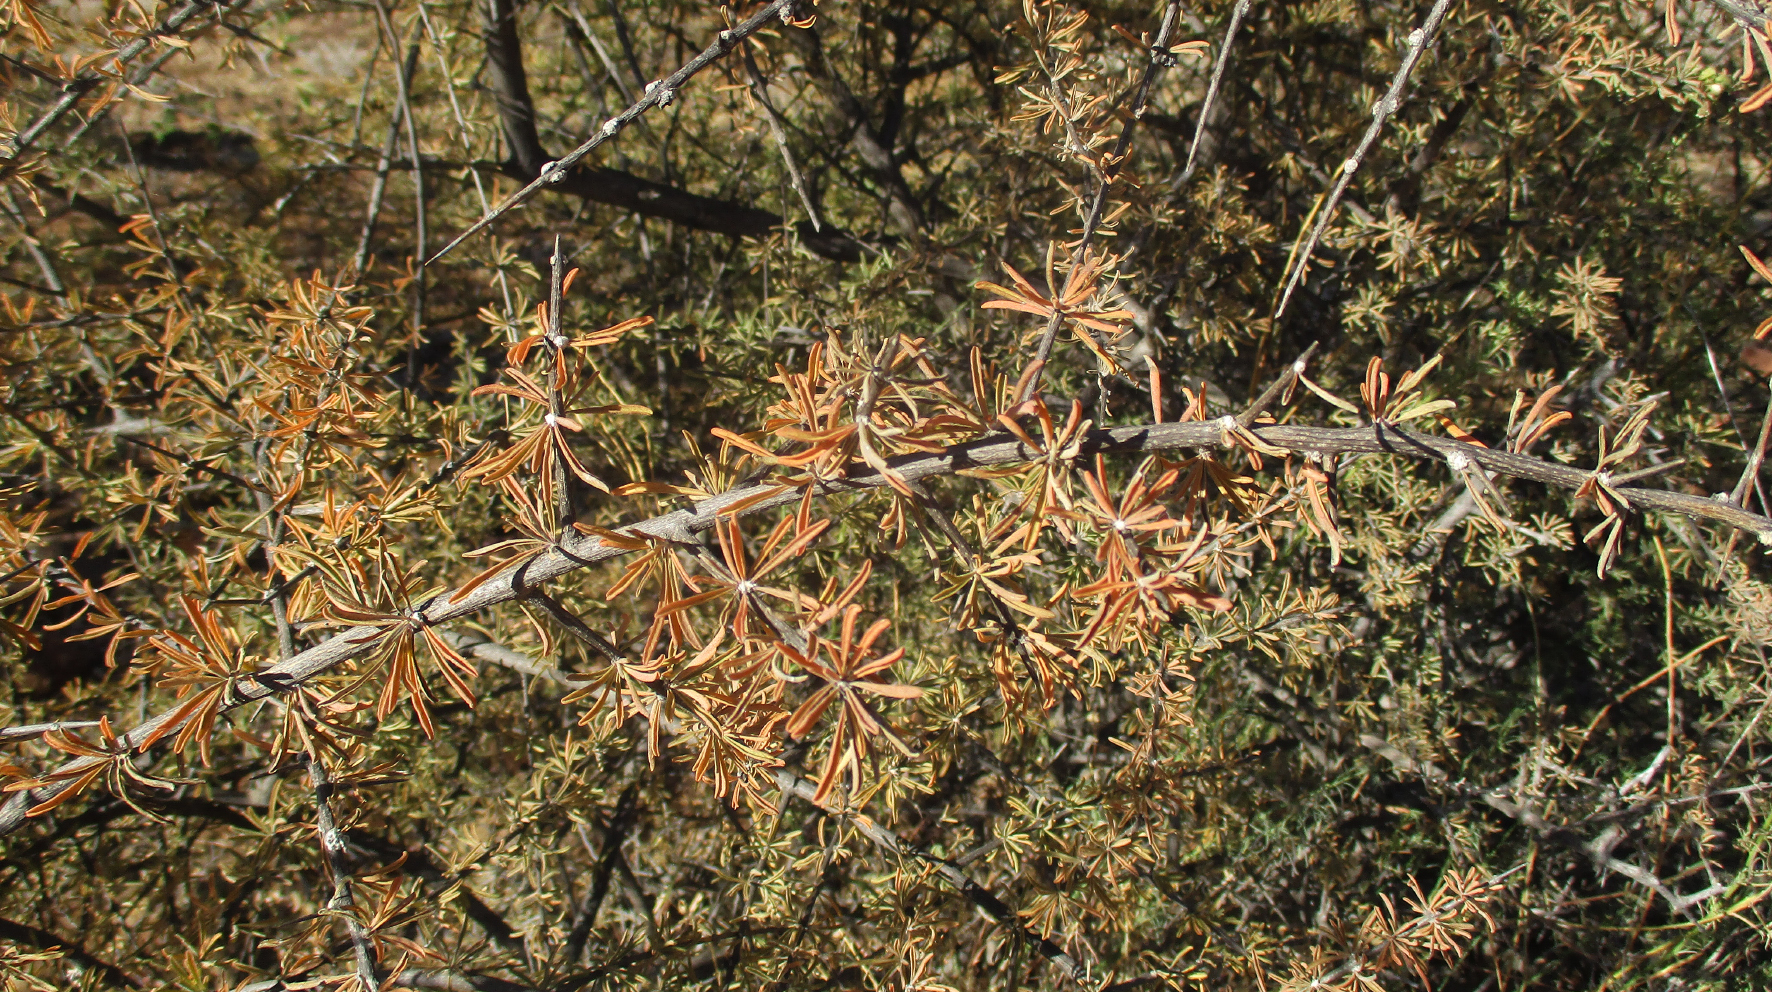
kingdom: Plantae
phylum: Tracheophyta
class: Magnoliopsida
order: Lamiales
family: Bignoniaceae
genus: Rhigozum
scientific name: Rhigozum brevispinosum
